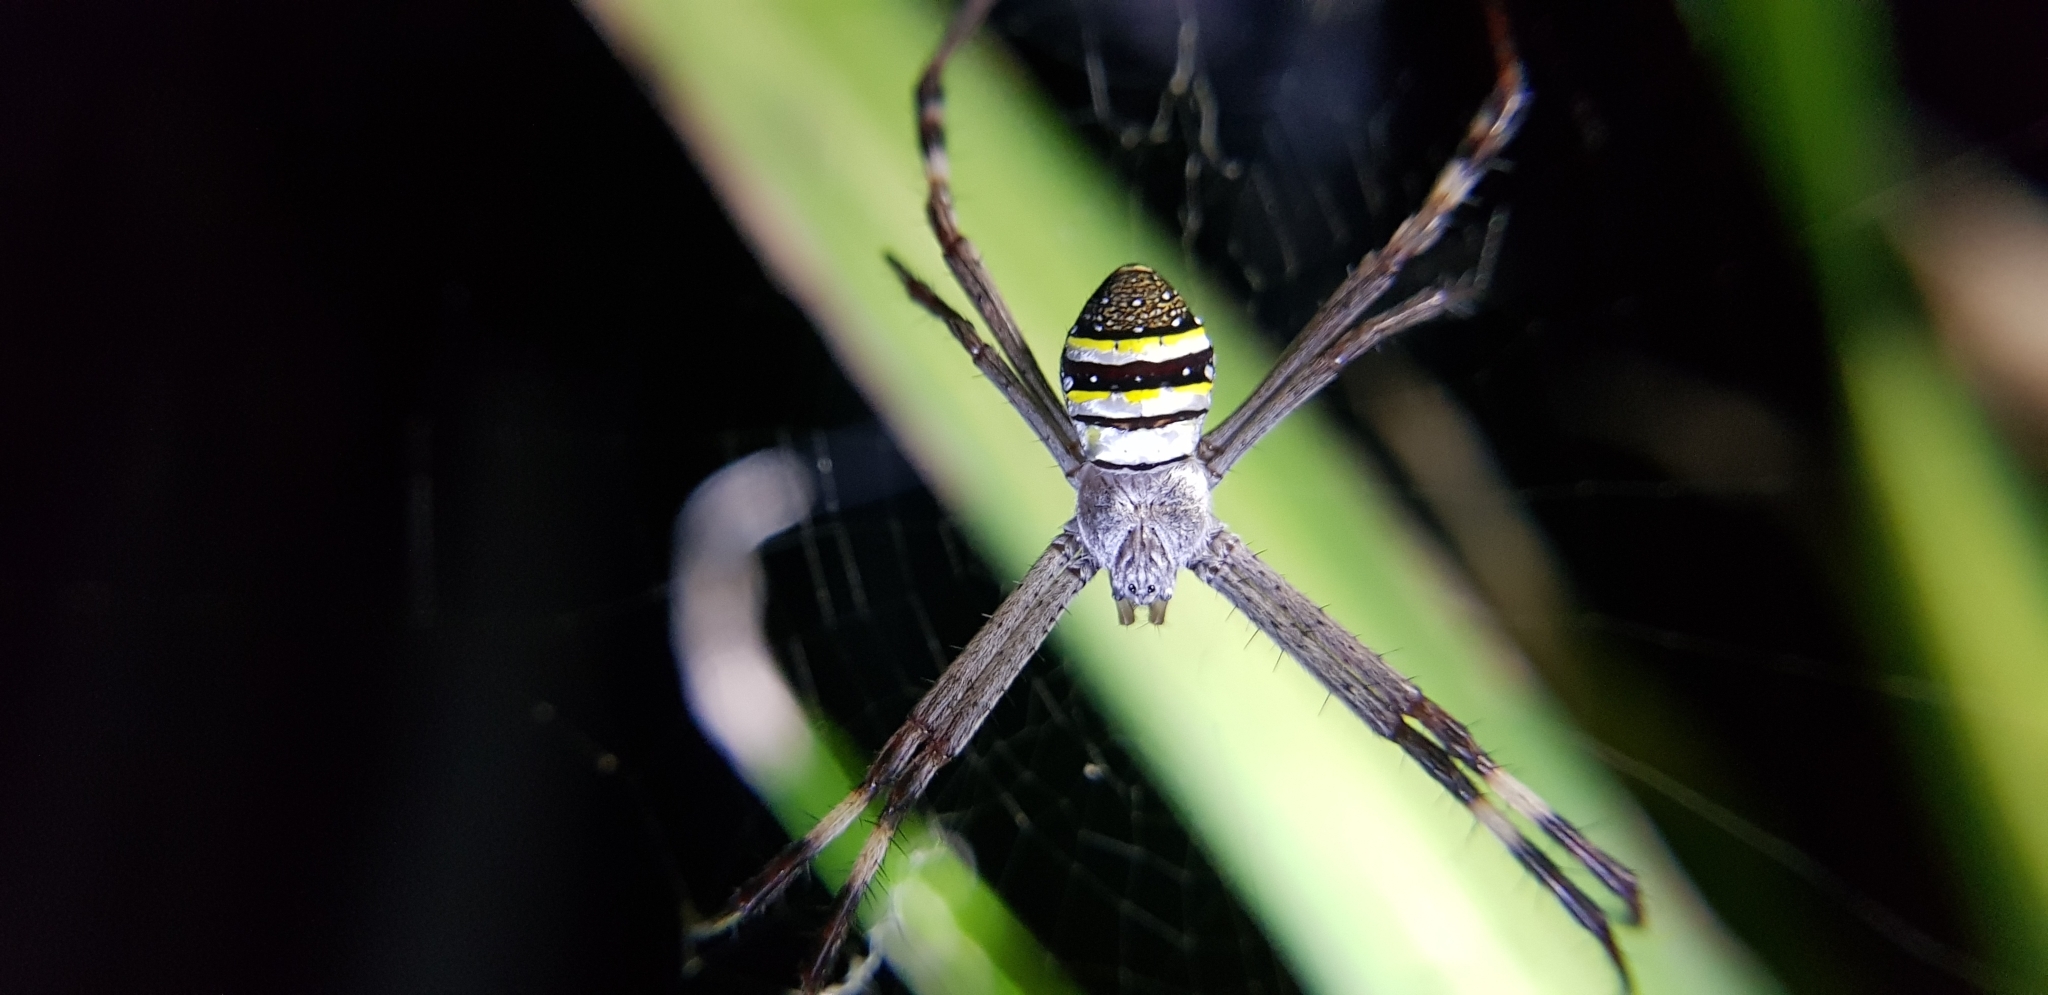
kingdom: Animalia
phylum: Arthropoda
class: Arachnida
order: Araneae
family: Araneidae
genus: Argiope
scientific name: Argiope keyserlingi
